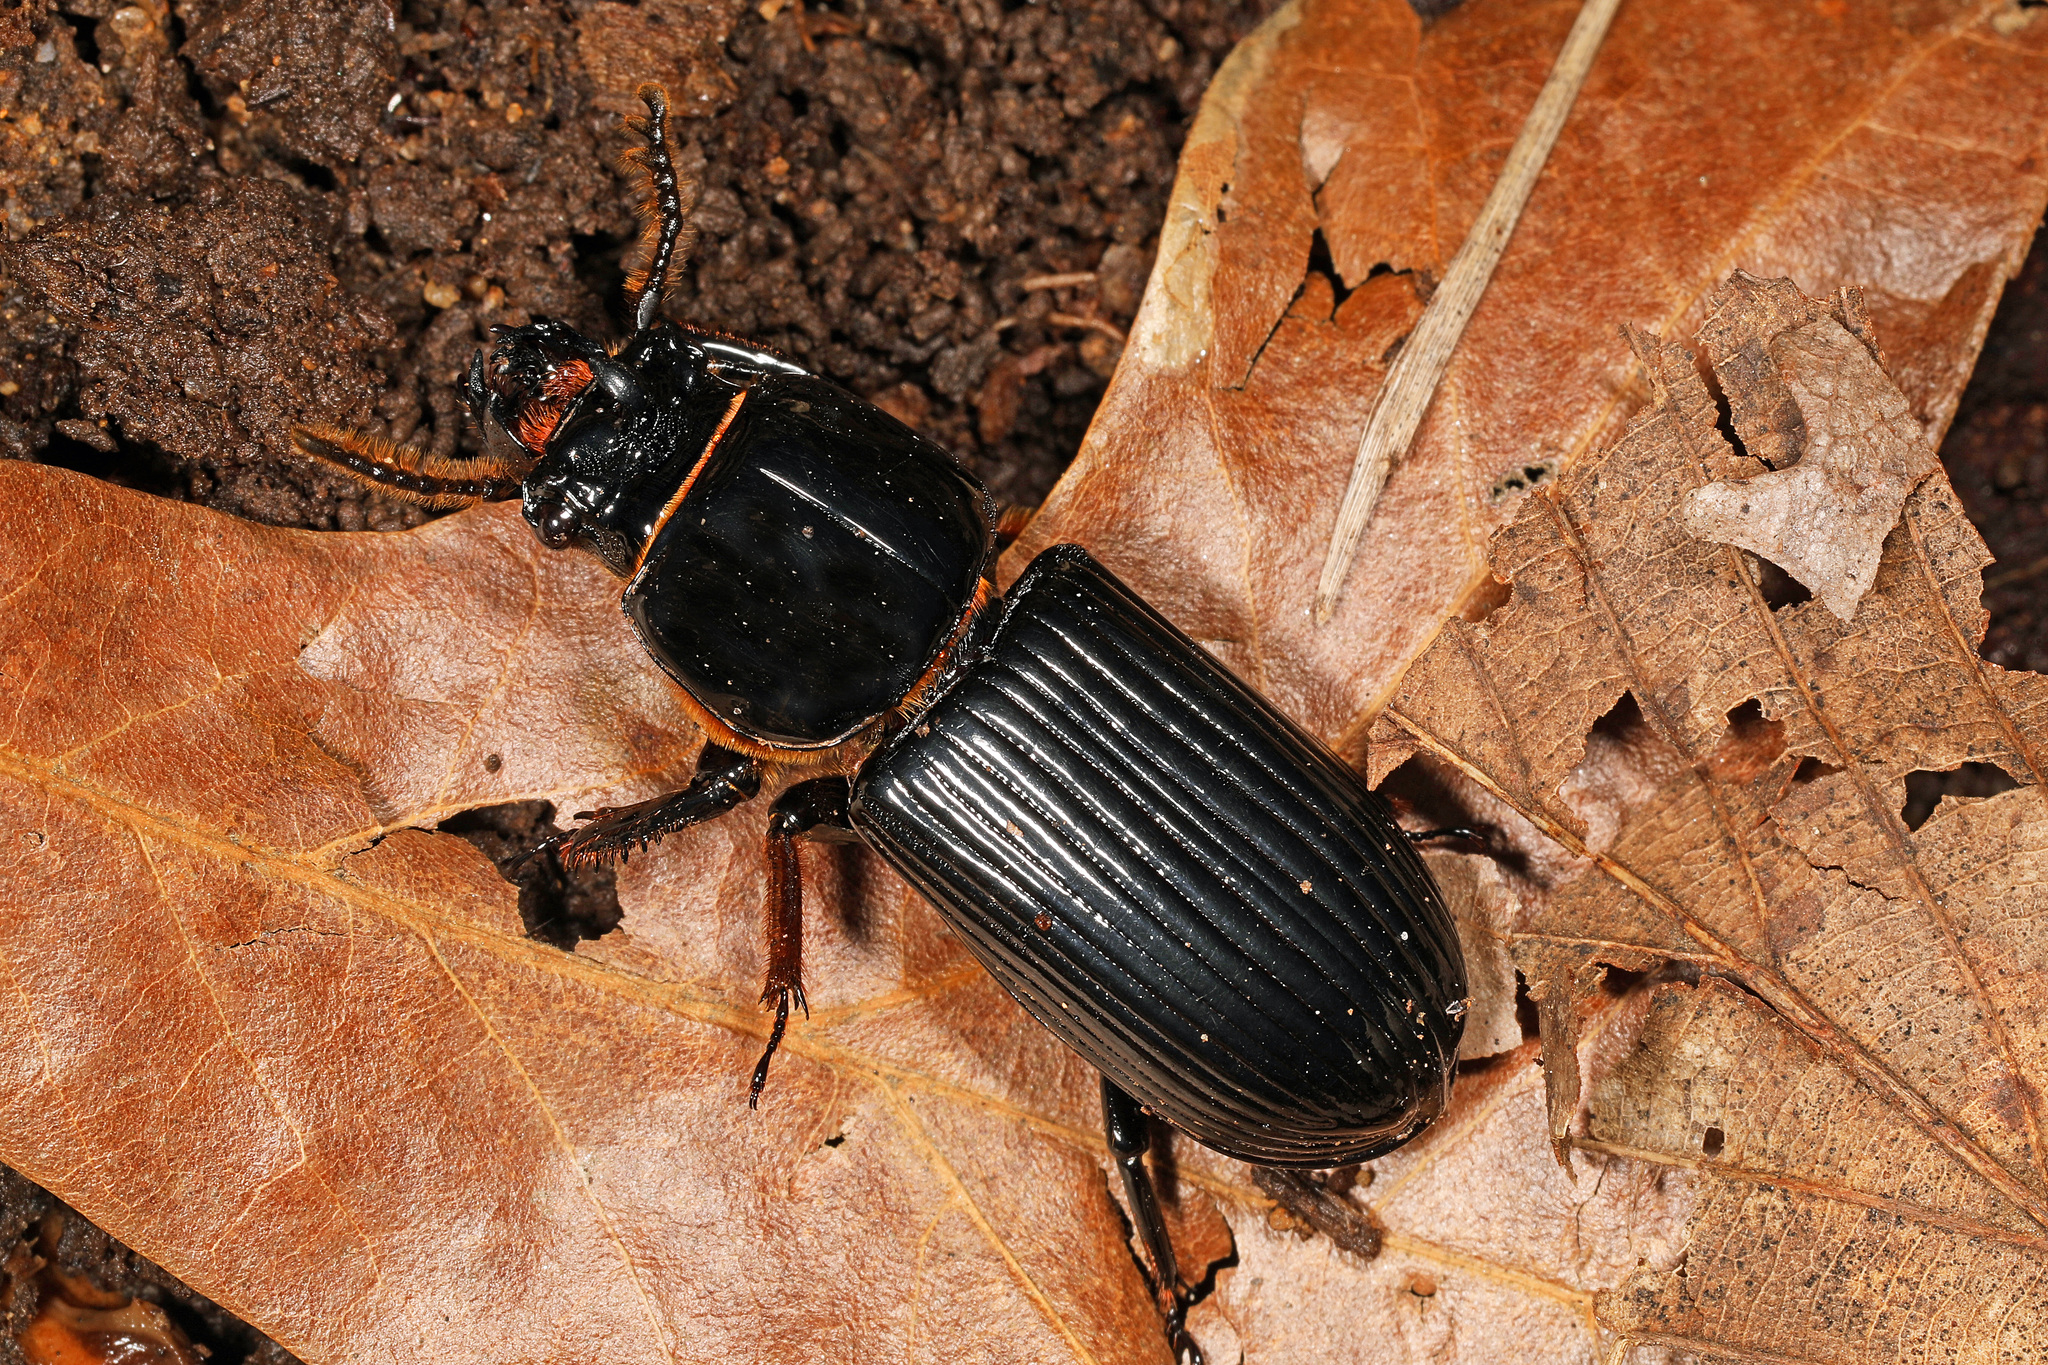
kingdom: Animalia
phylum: Arthropoda
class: Insecta
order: Coleoptera
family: Passalidae
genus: Odontotaenius
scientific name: Odontotaenius disjunctus
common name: Patent leather beetle
